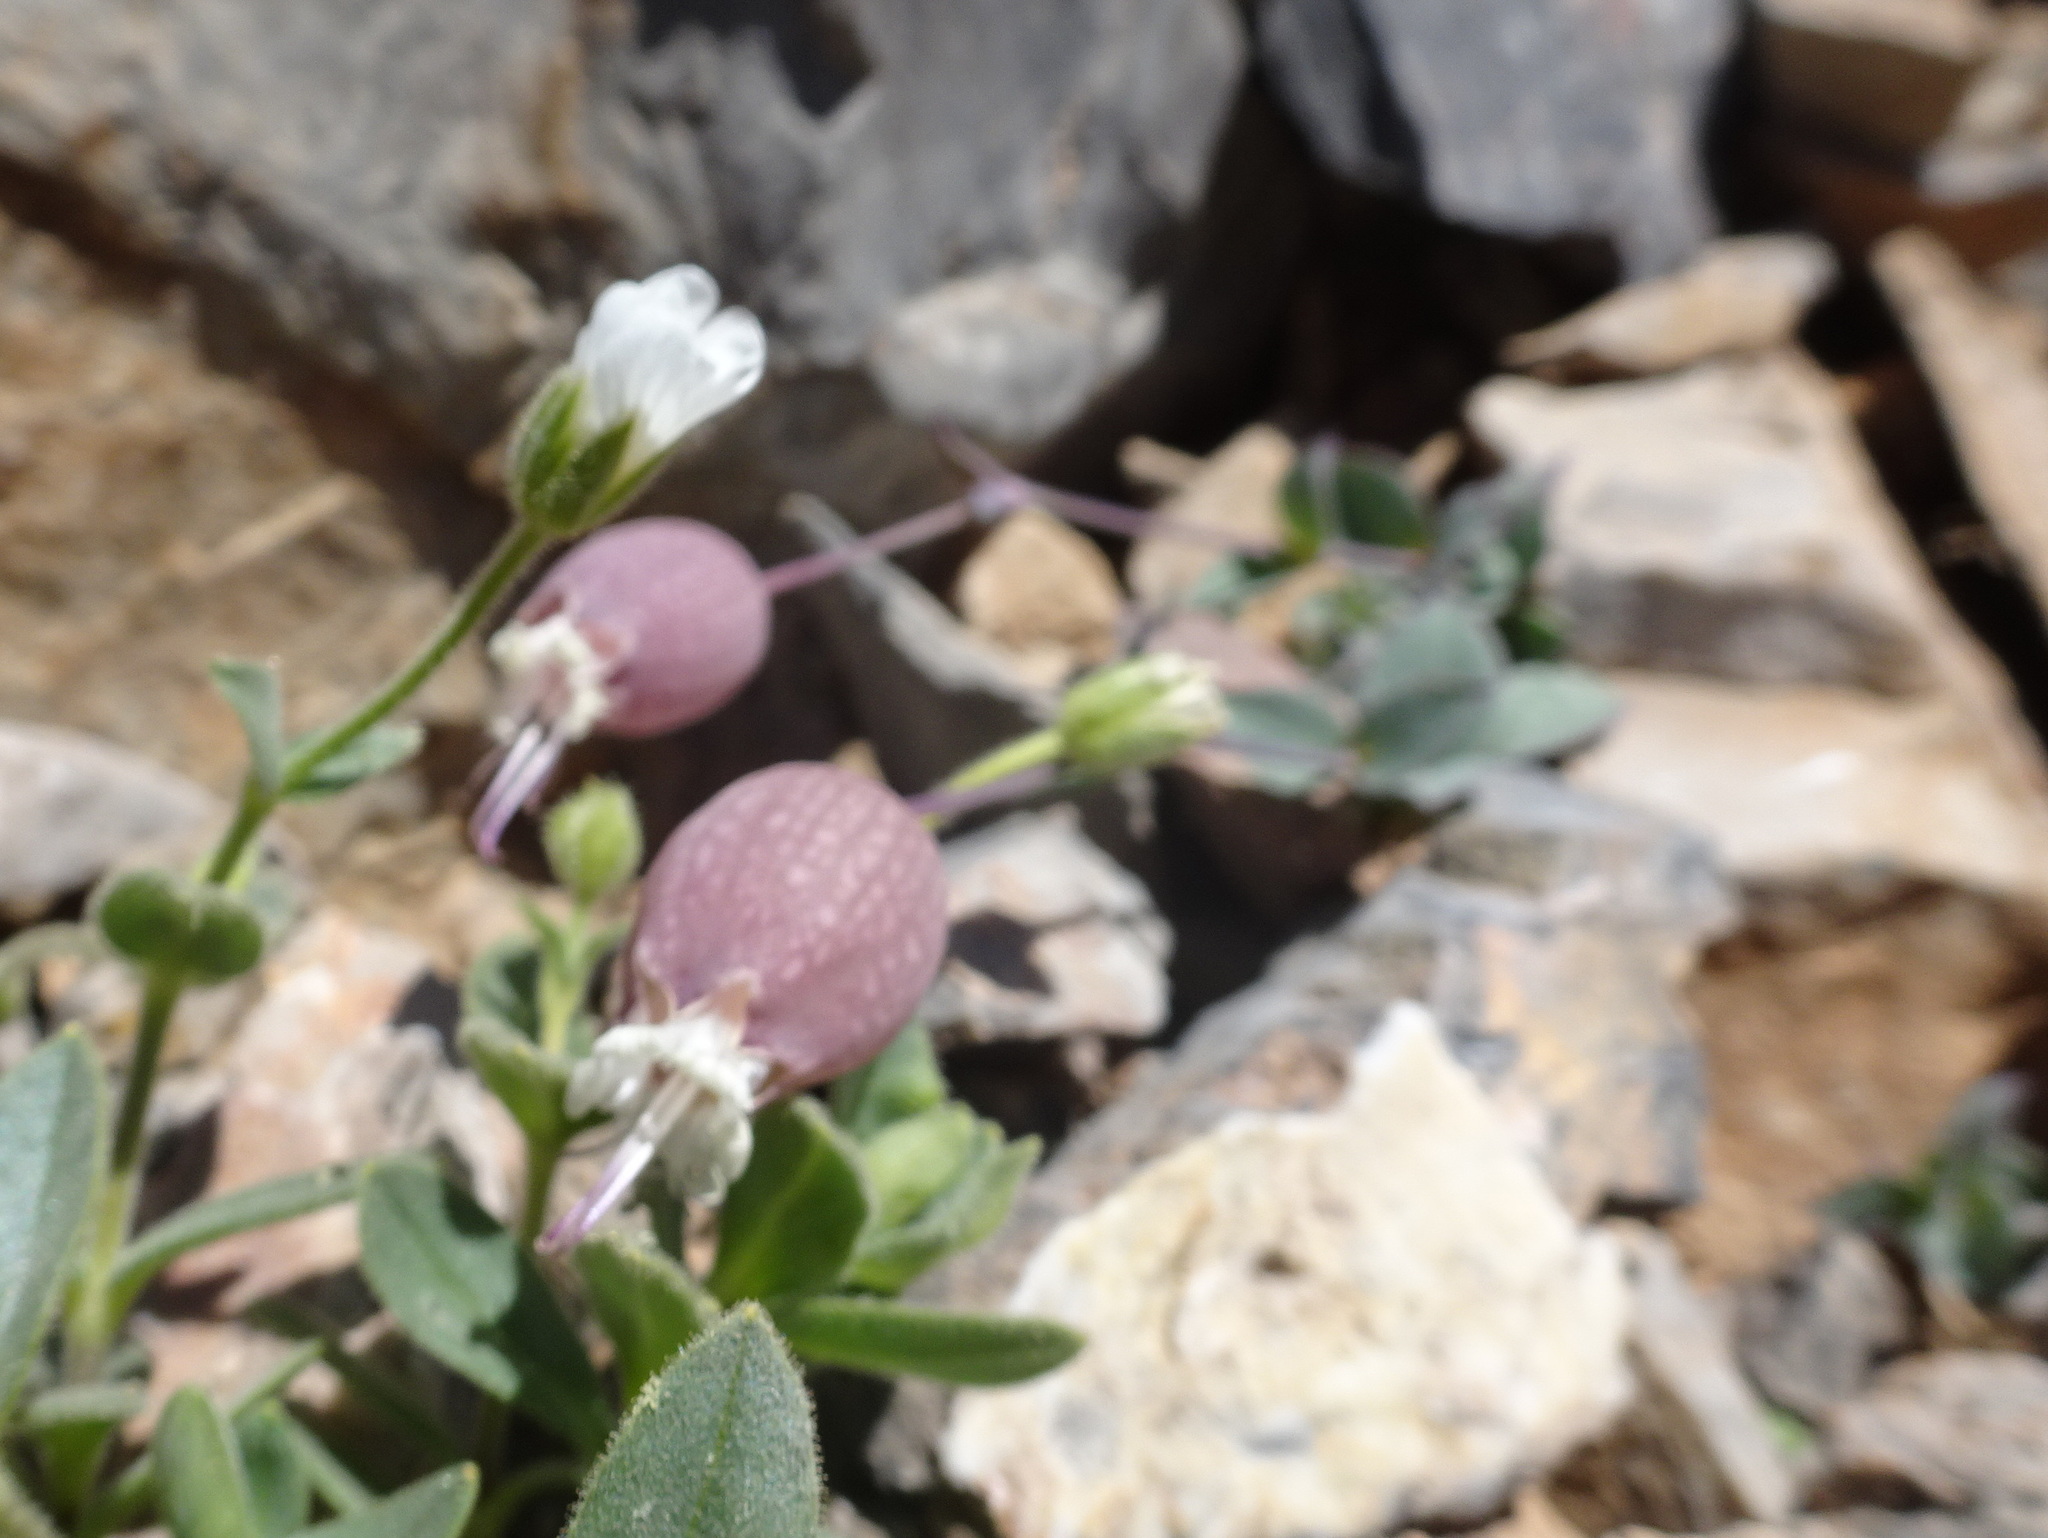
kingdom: Plantae
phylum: Tracheophyta
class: Magnoliopsida
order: Caryophyllales
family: Caryophyllaceae
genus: Silene
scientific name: Silene vulgaris
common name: Bladder campion
